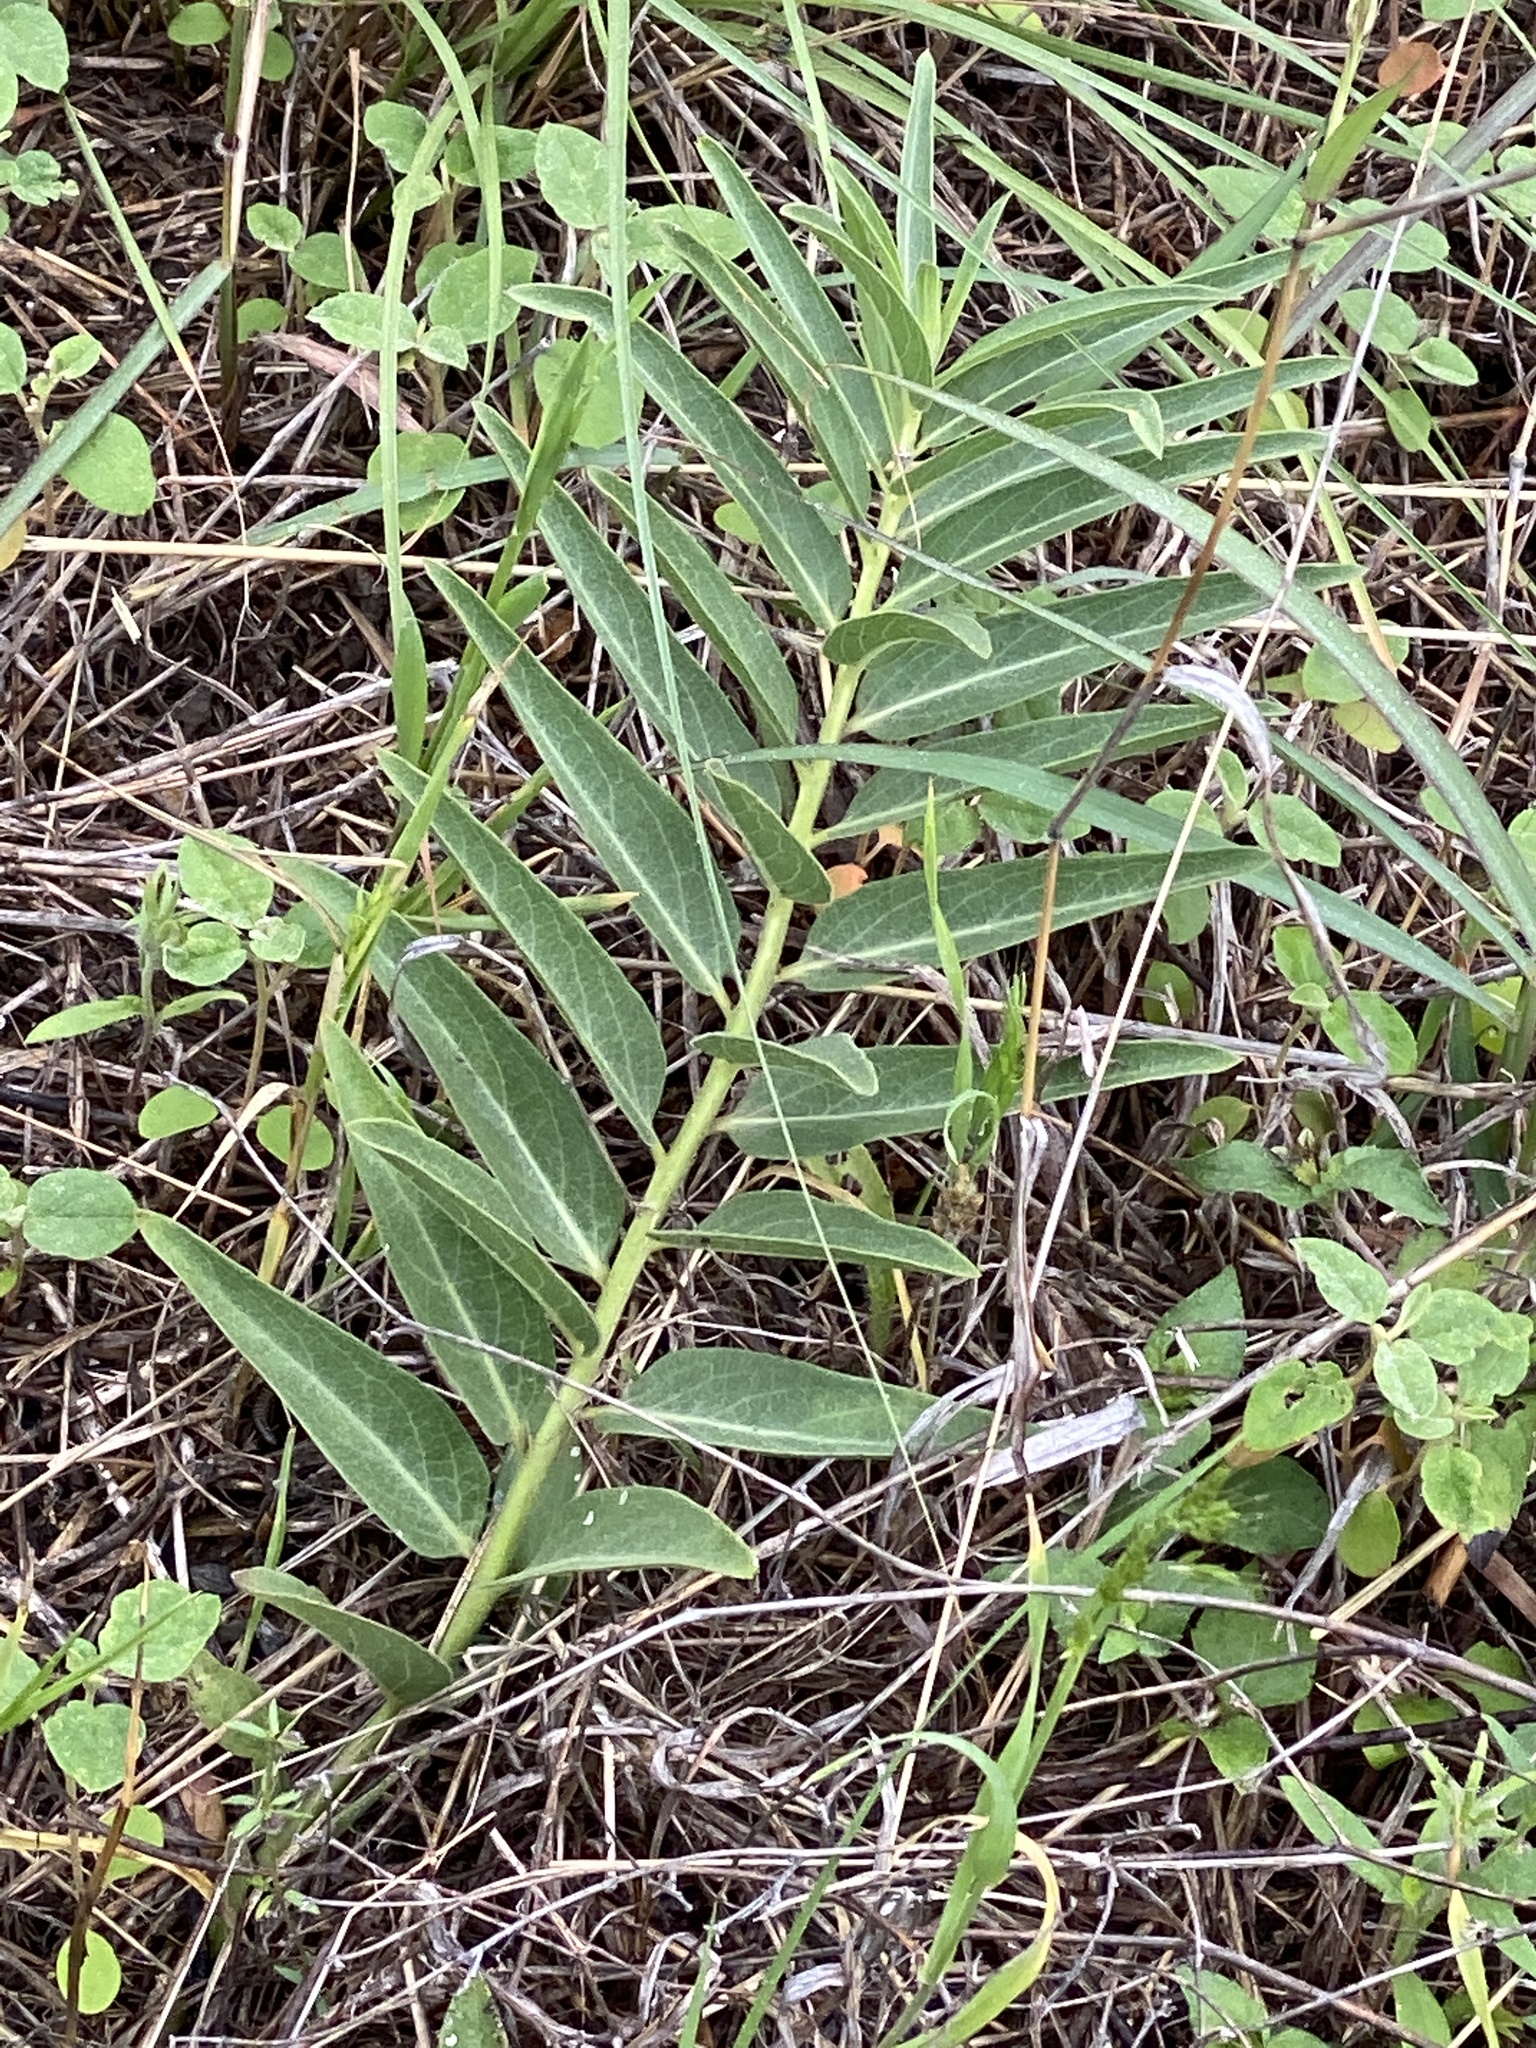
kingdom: Plantae
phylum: Tracheophyta
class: Magnoliopsida
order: Gentianales
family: Apocynaceae
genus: Asclepias
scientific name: Asclepias asperula
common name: Antelope horns
